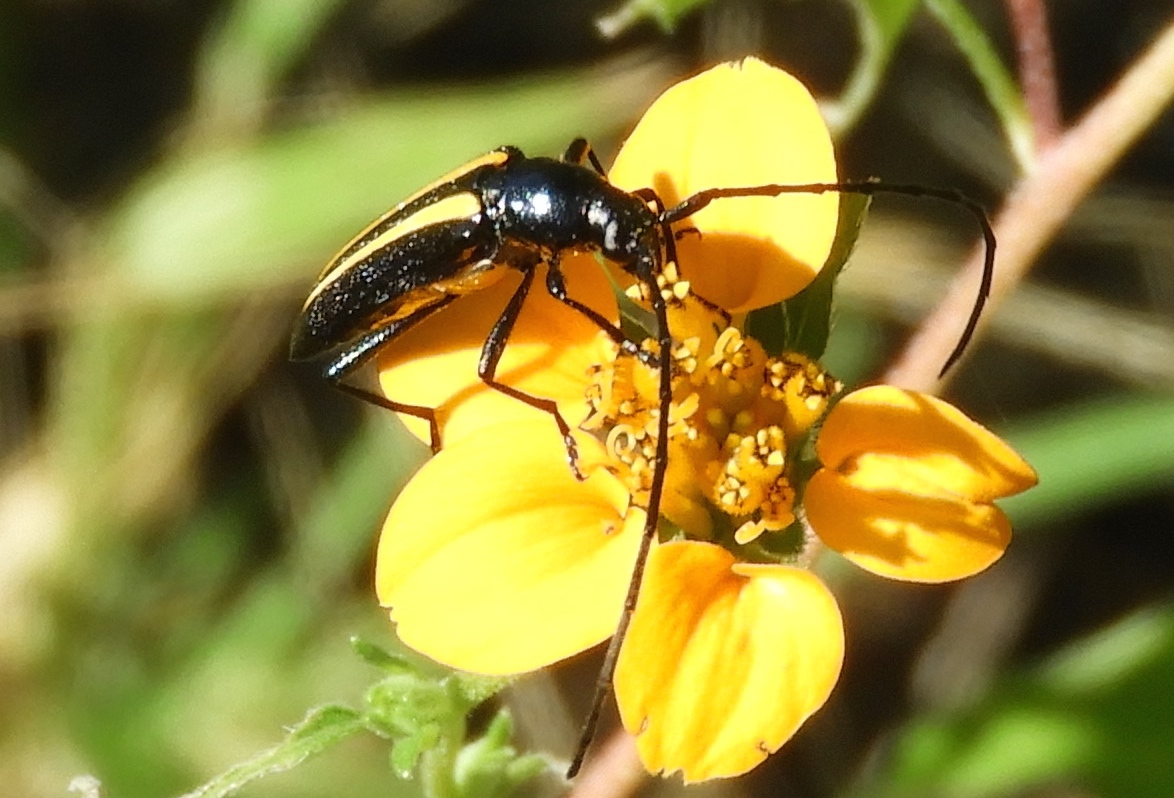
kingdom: Animalia
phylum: Arthropoda
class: Insecta
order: Coleoptera
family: Cerambycidae
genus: Lophalia
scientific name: Lophalia prolata
